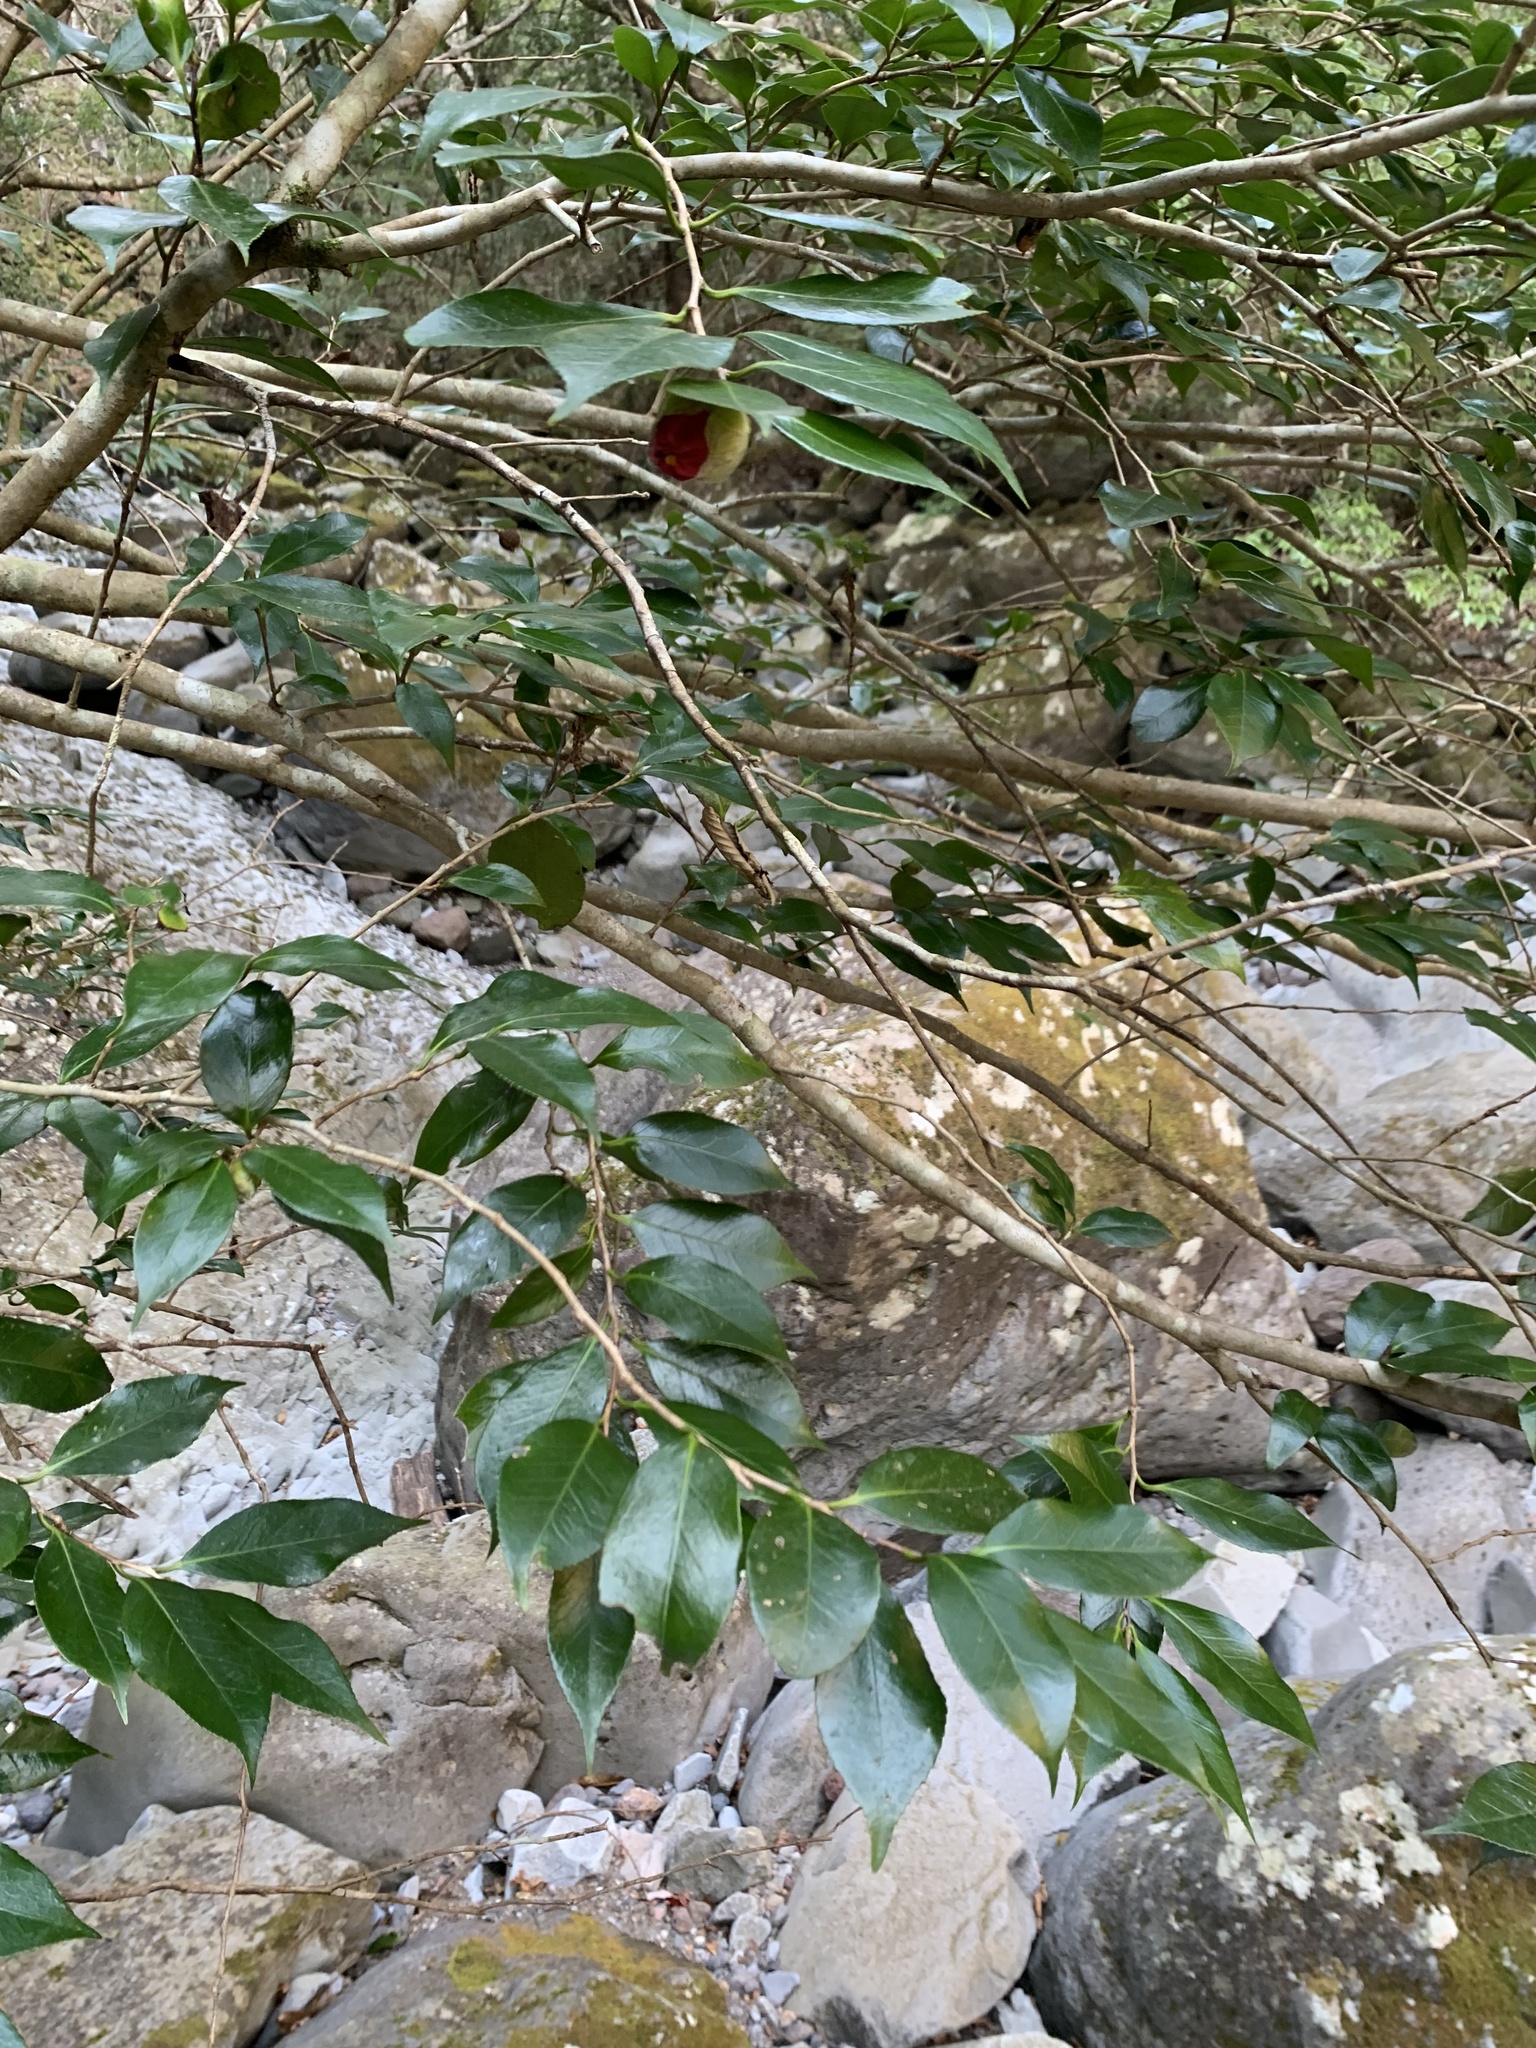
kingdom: Plantae
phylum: Tracheophyta
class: Magnoliopsida
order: Ericales
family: Theaceae
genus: Camellia
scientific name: Camellia japonica
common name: Camellia
